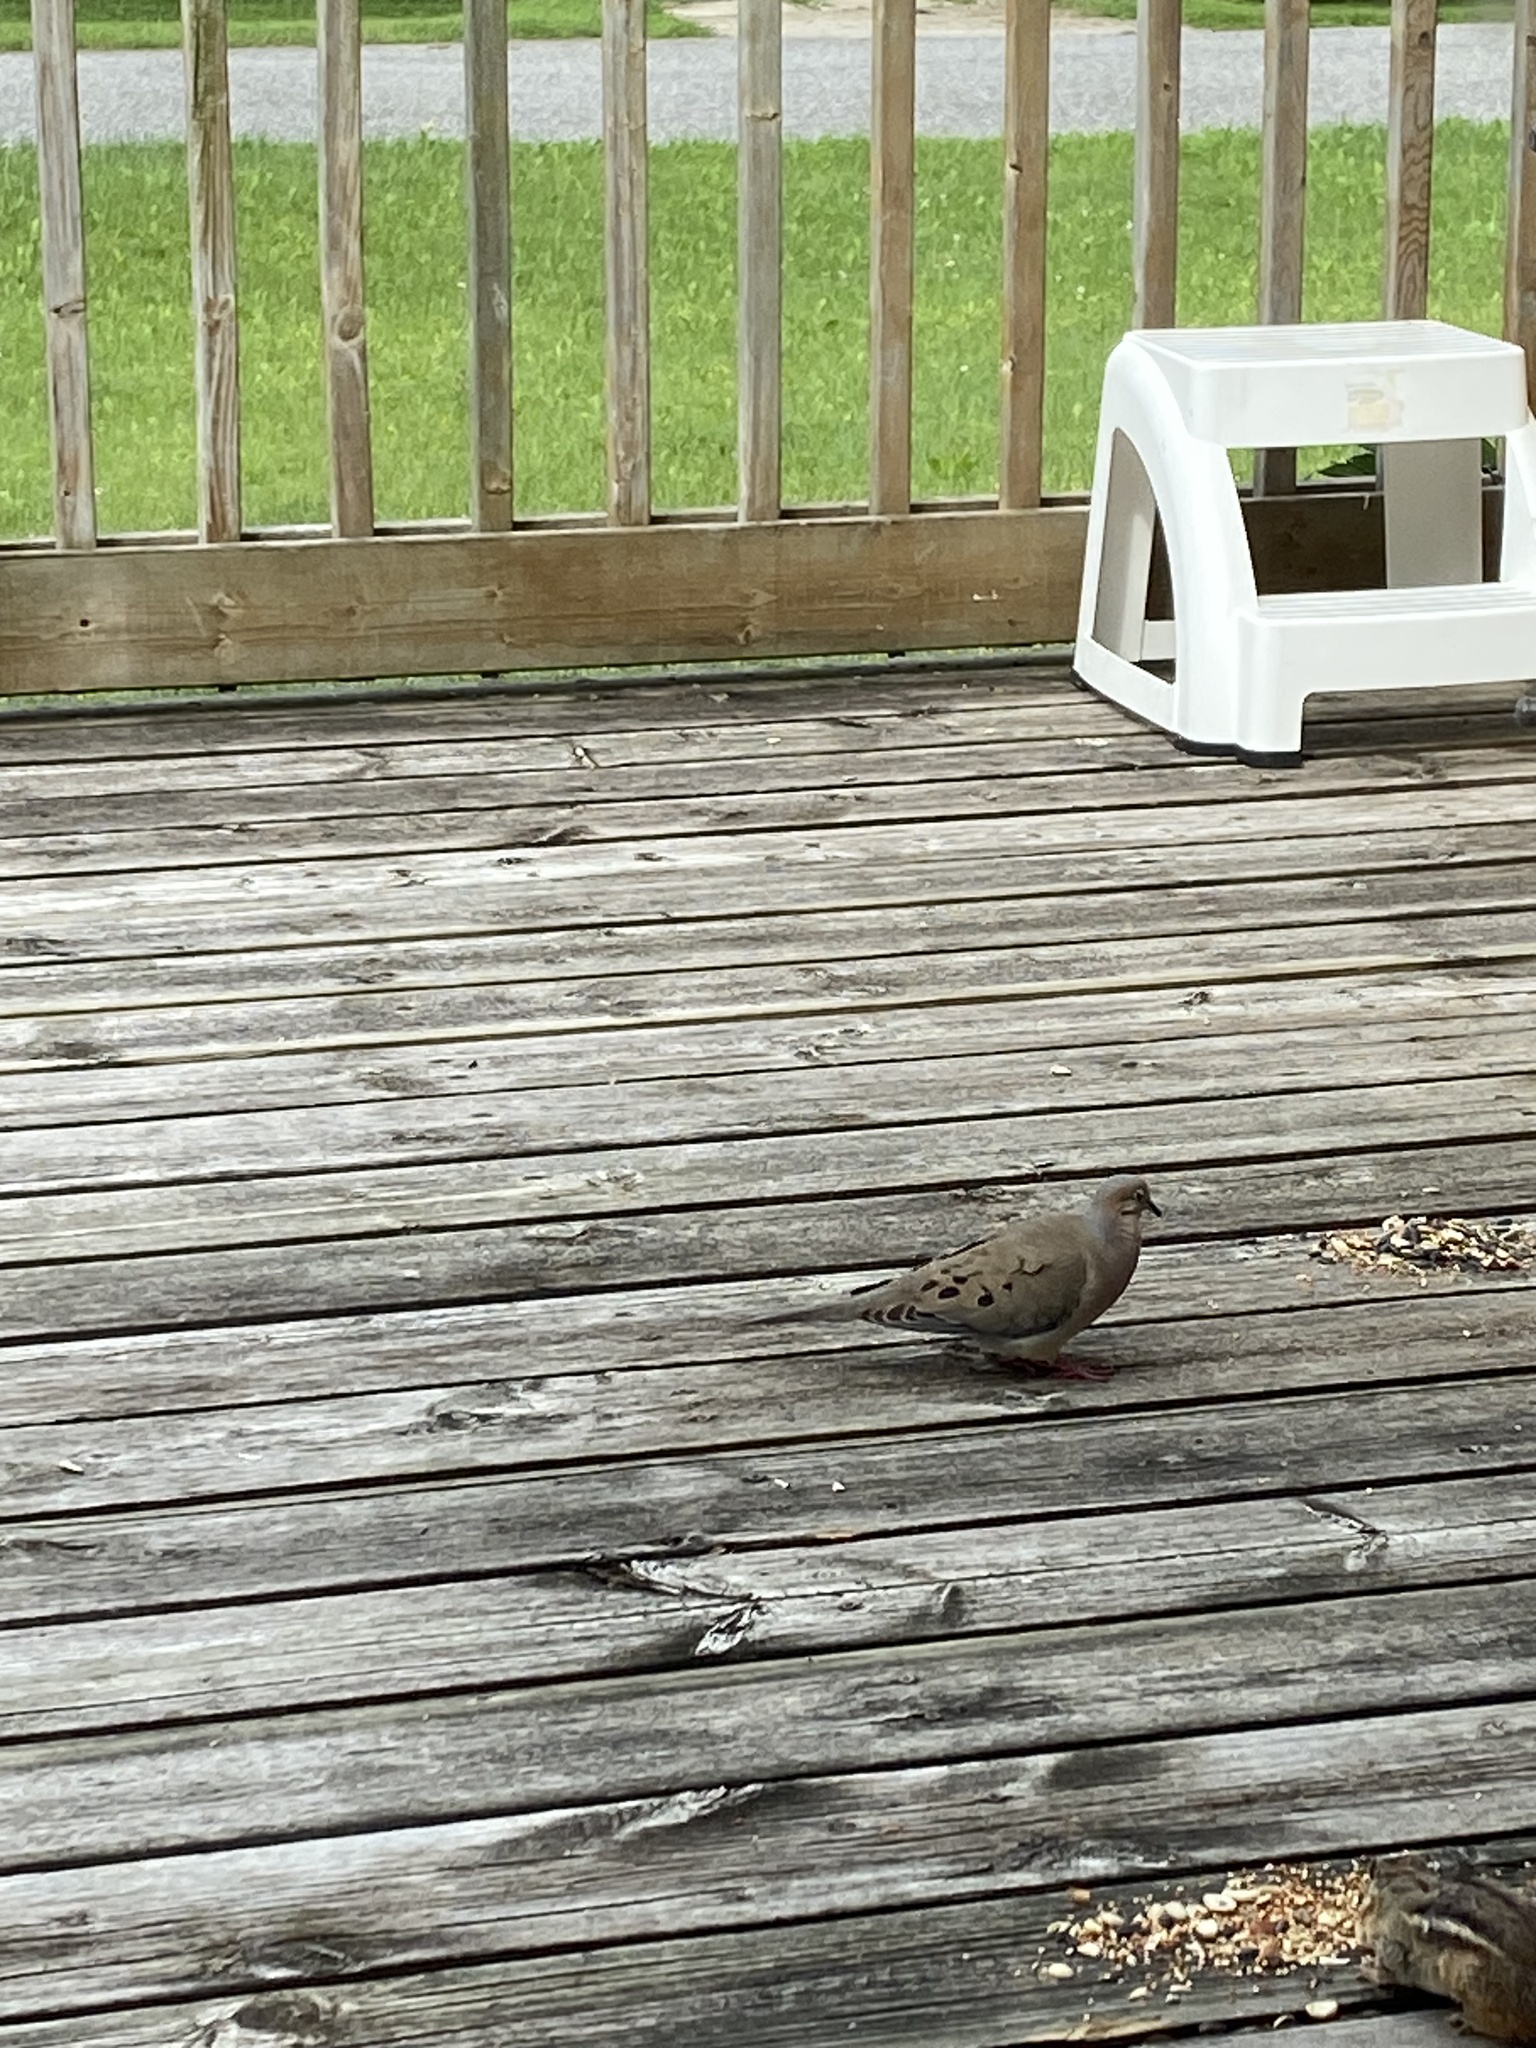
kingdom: Animalia
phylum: Chordata
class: Aves
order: Columbiformes
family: Columbidae
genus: Zenaida
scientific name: Zenaida macroura
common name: Mourning dove
